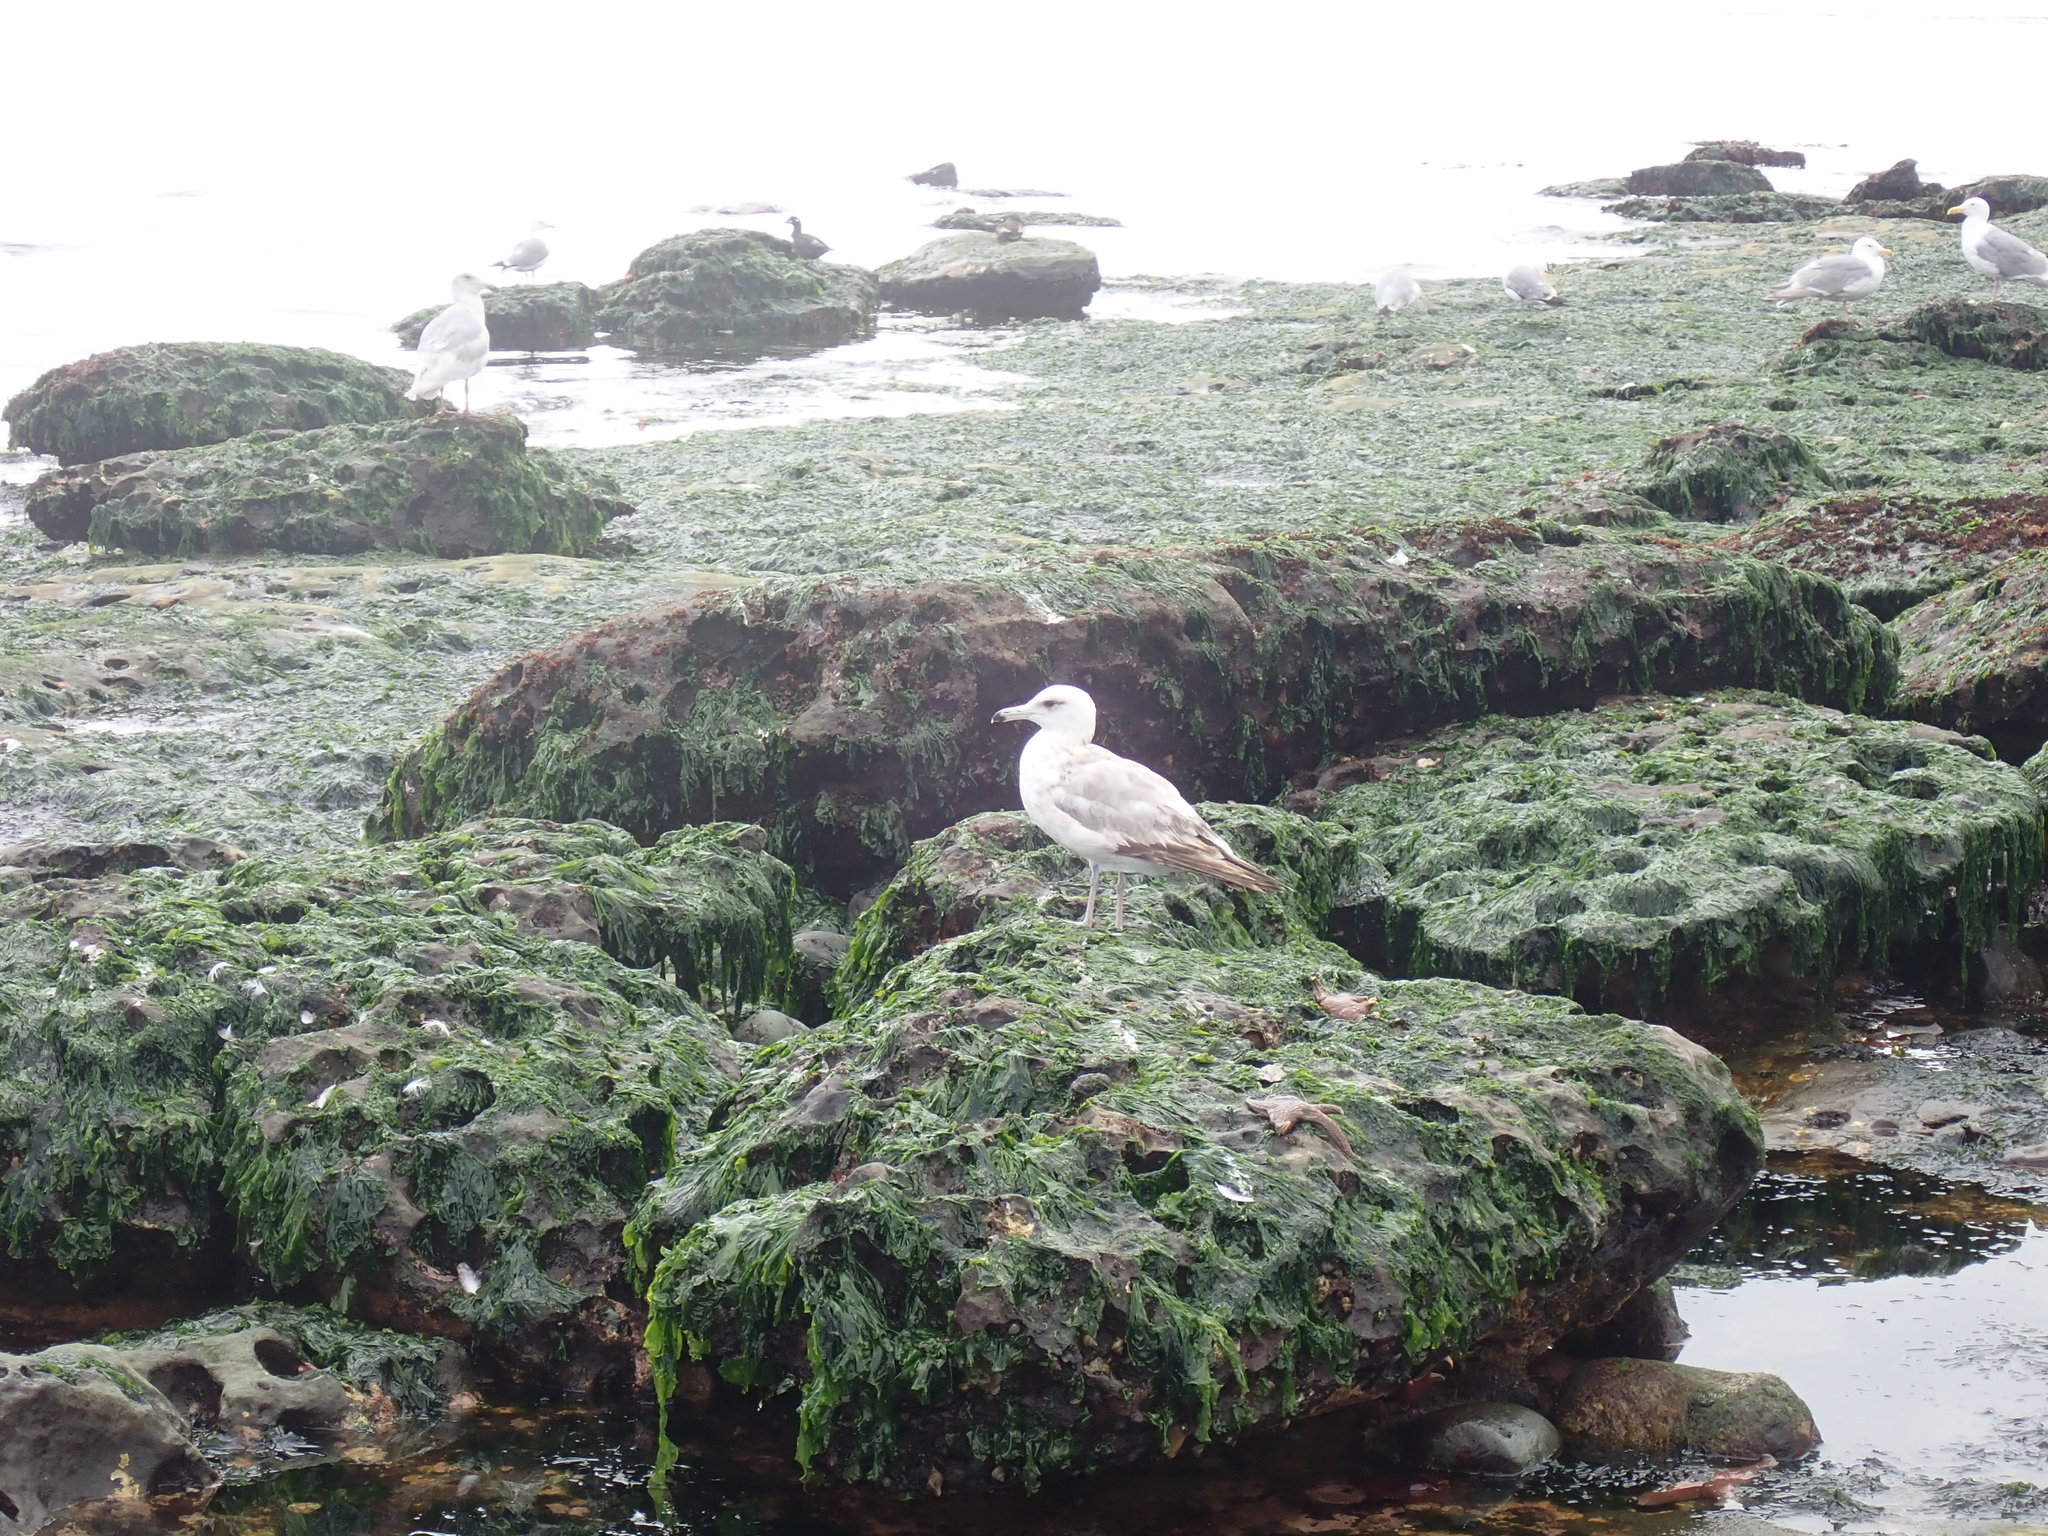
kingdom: Animalia
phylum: Chordata
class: Aves
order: Charadriiformes
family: Laridae
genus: Larus
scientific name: Larus californicus
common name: California gull
